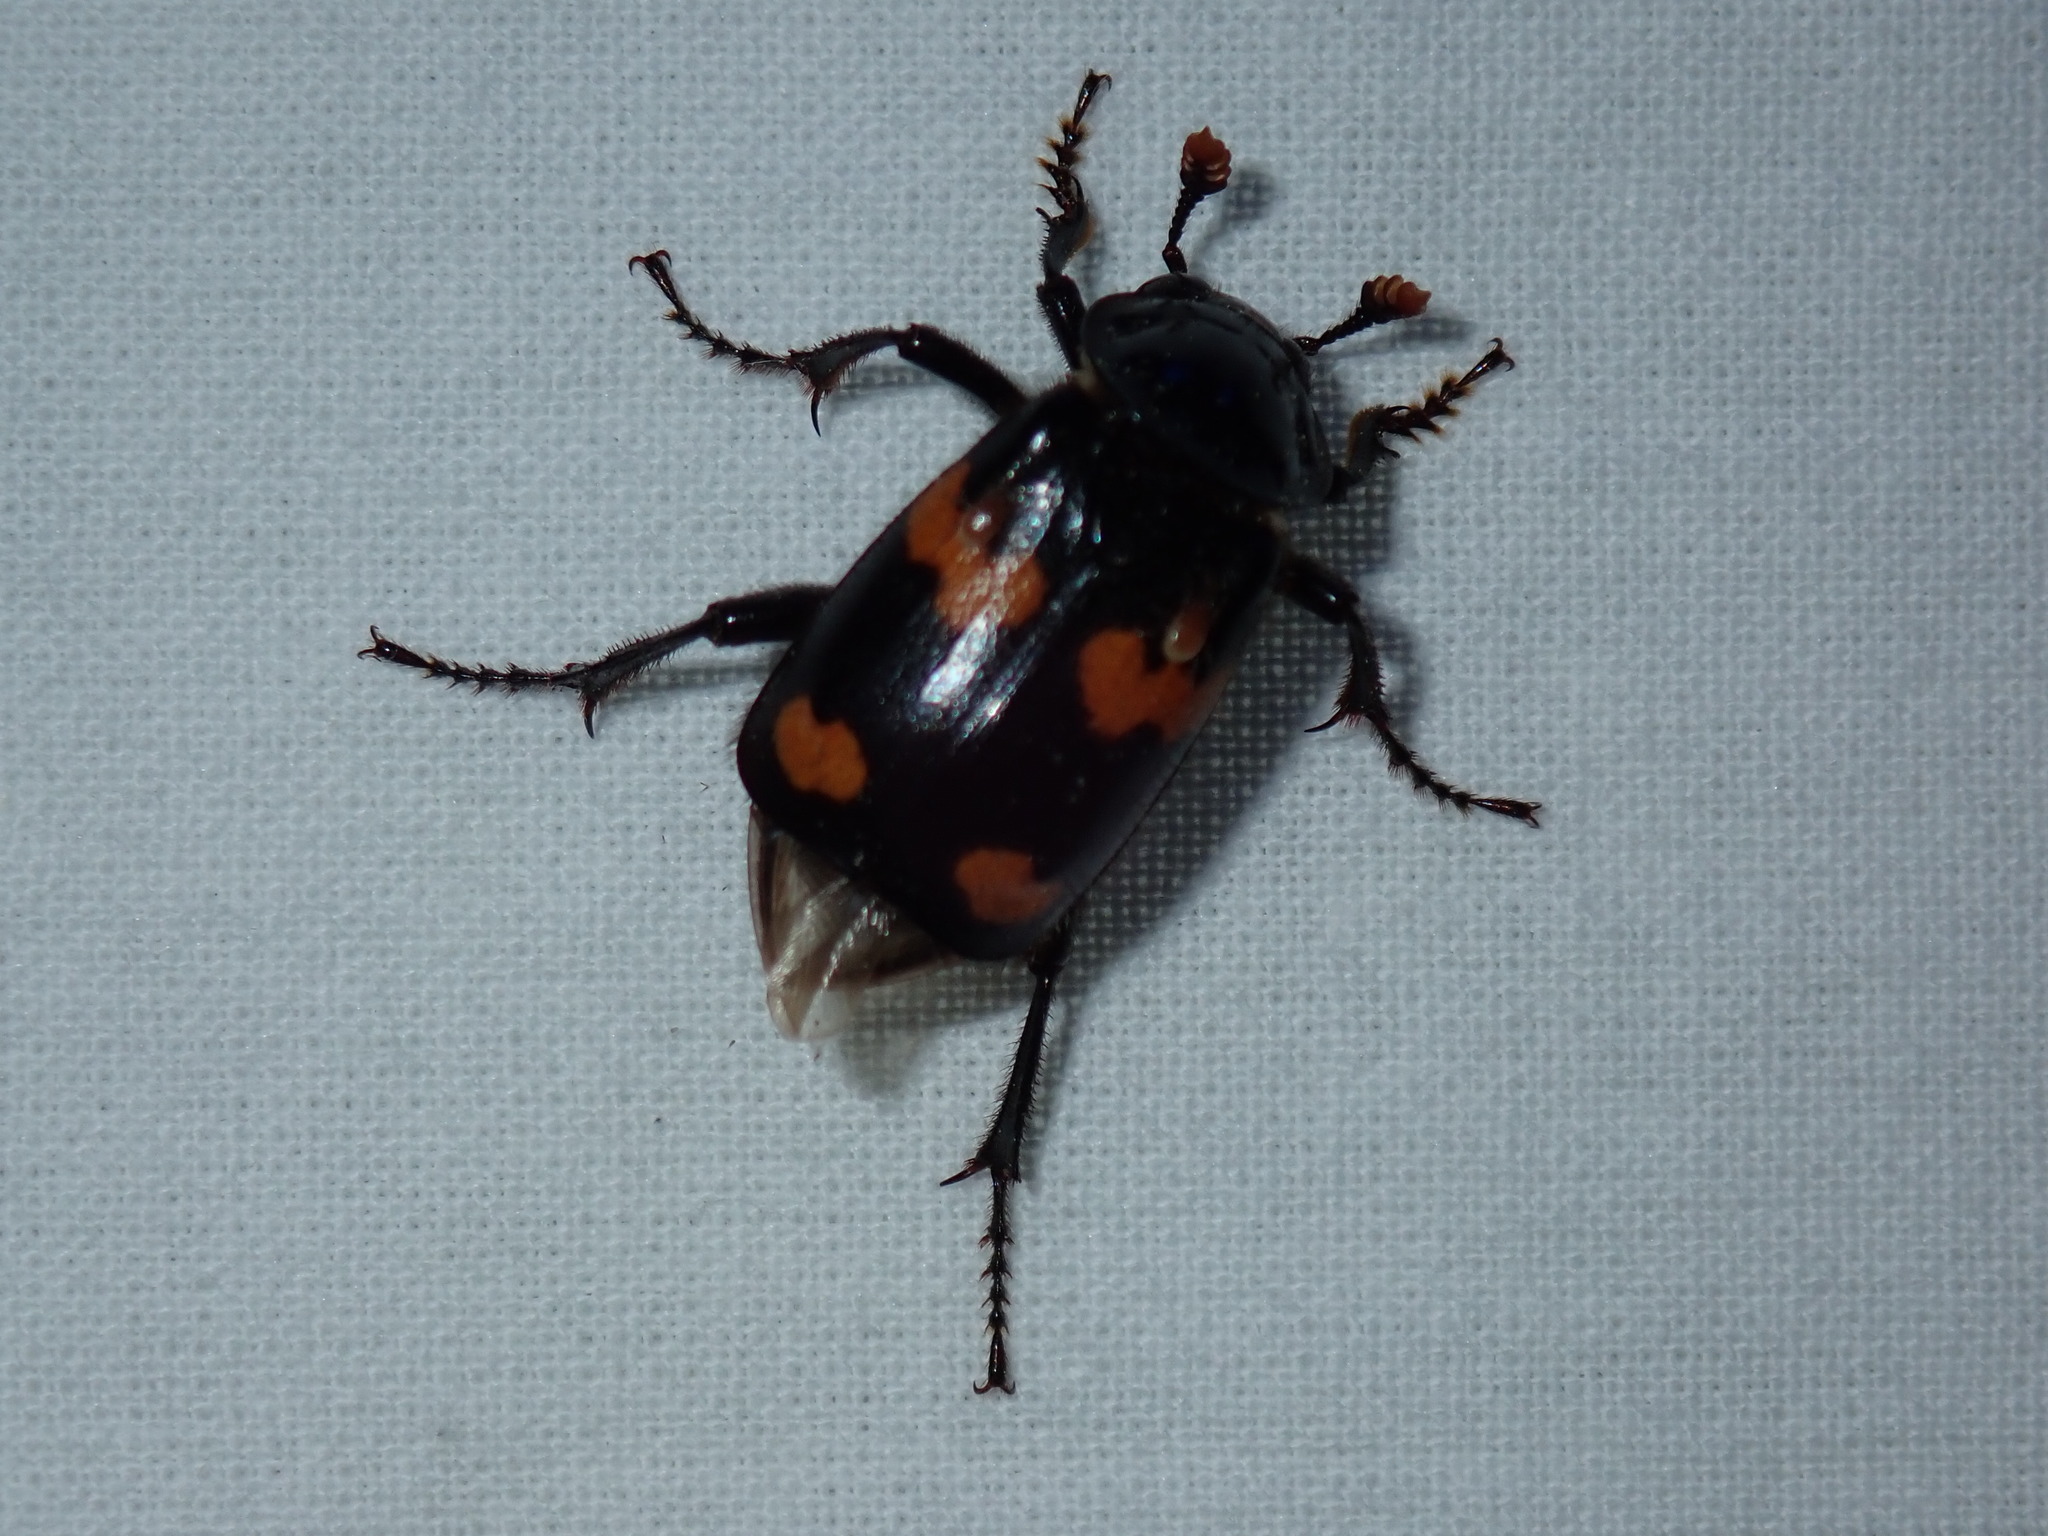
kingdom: Animalia
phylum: Arthropoda
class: Insecta
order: Coleoptera
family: Staphylinidae
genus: Nicrophorus
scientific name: Nicrophorus orbicollis
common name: Roundneck sexton beetle
